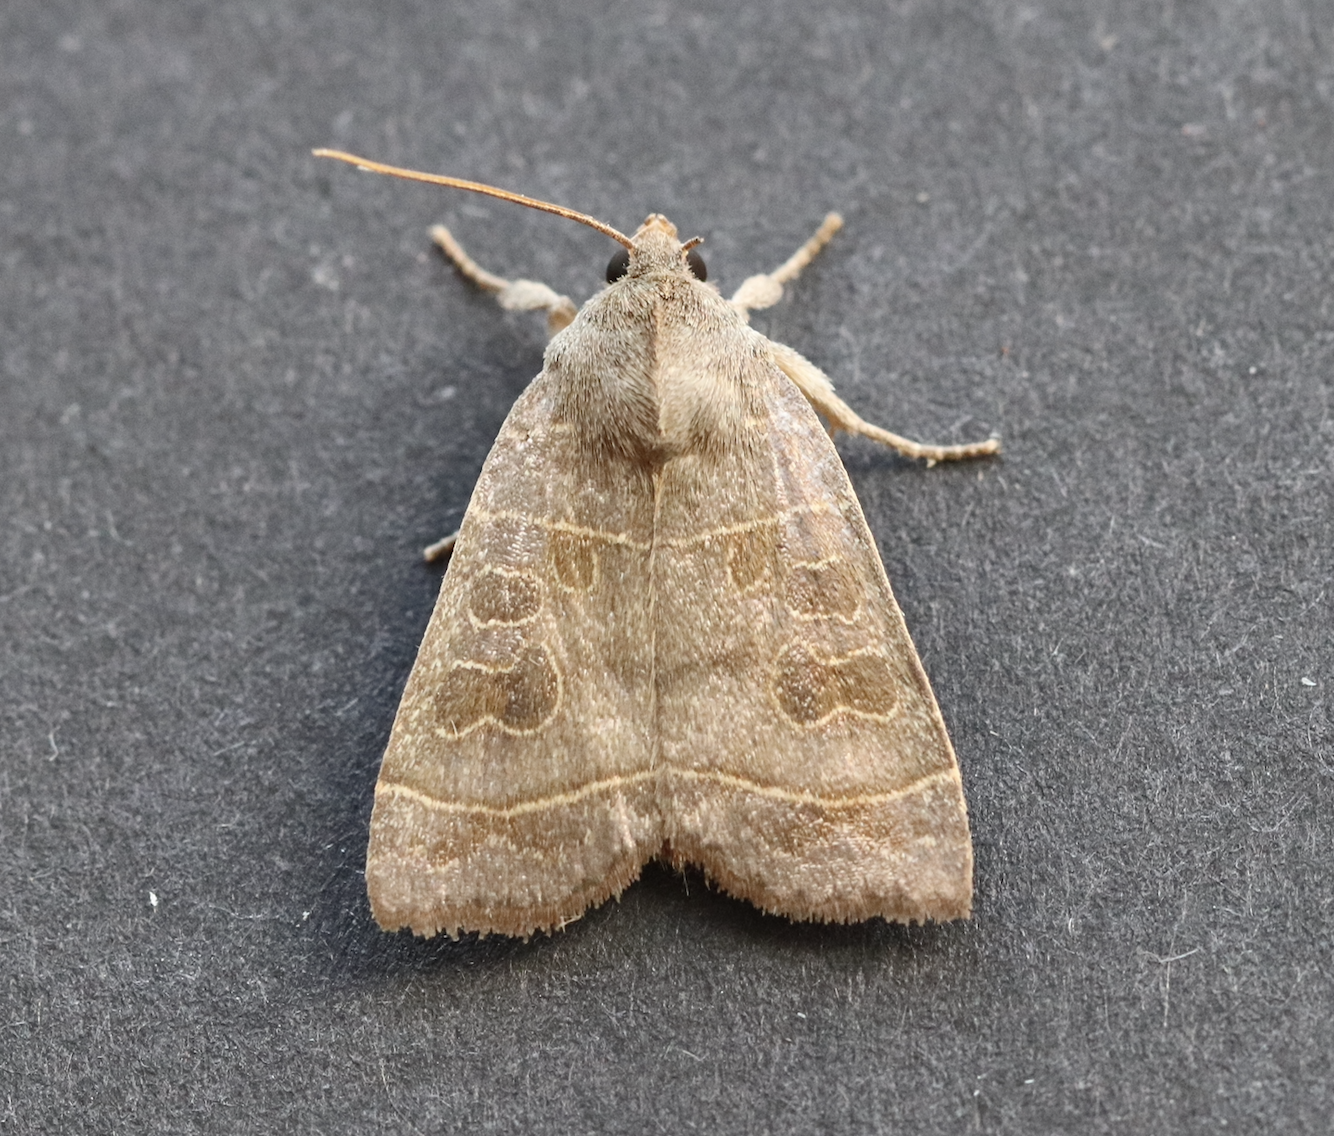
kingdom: Animalia
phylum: Arthropoda
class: Insecta
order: Lepidoptera
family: Noctuidae
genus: Ipimorpha
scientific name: Ipimorpha subtusa
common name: Olive
